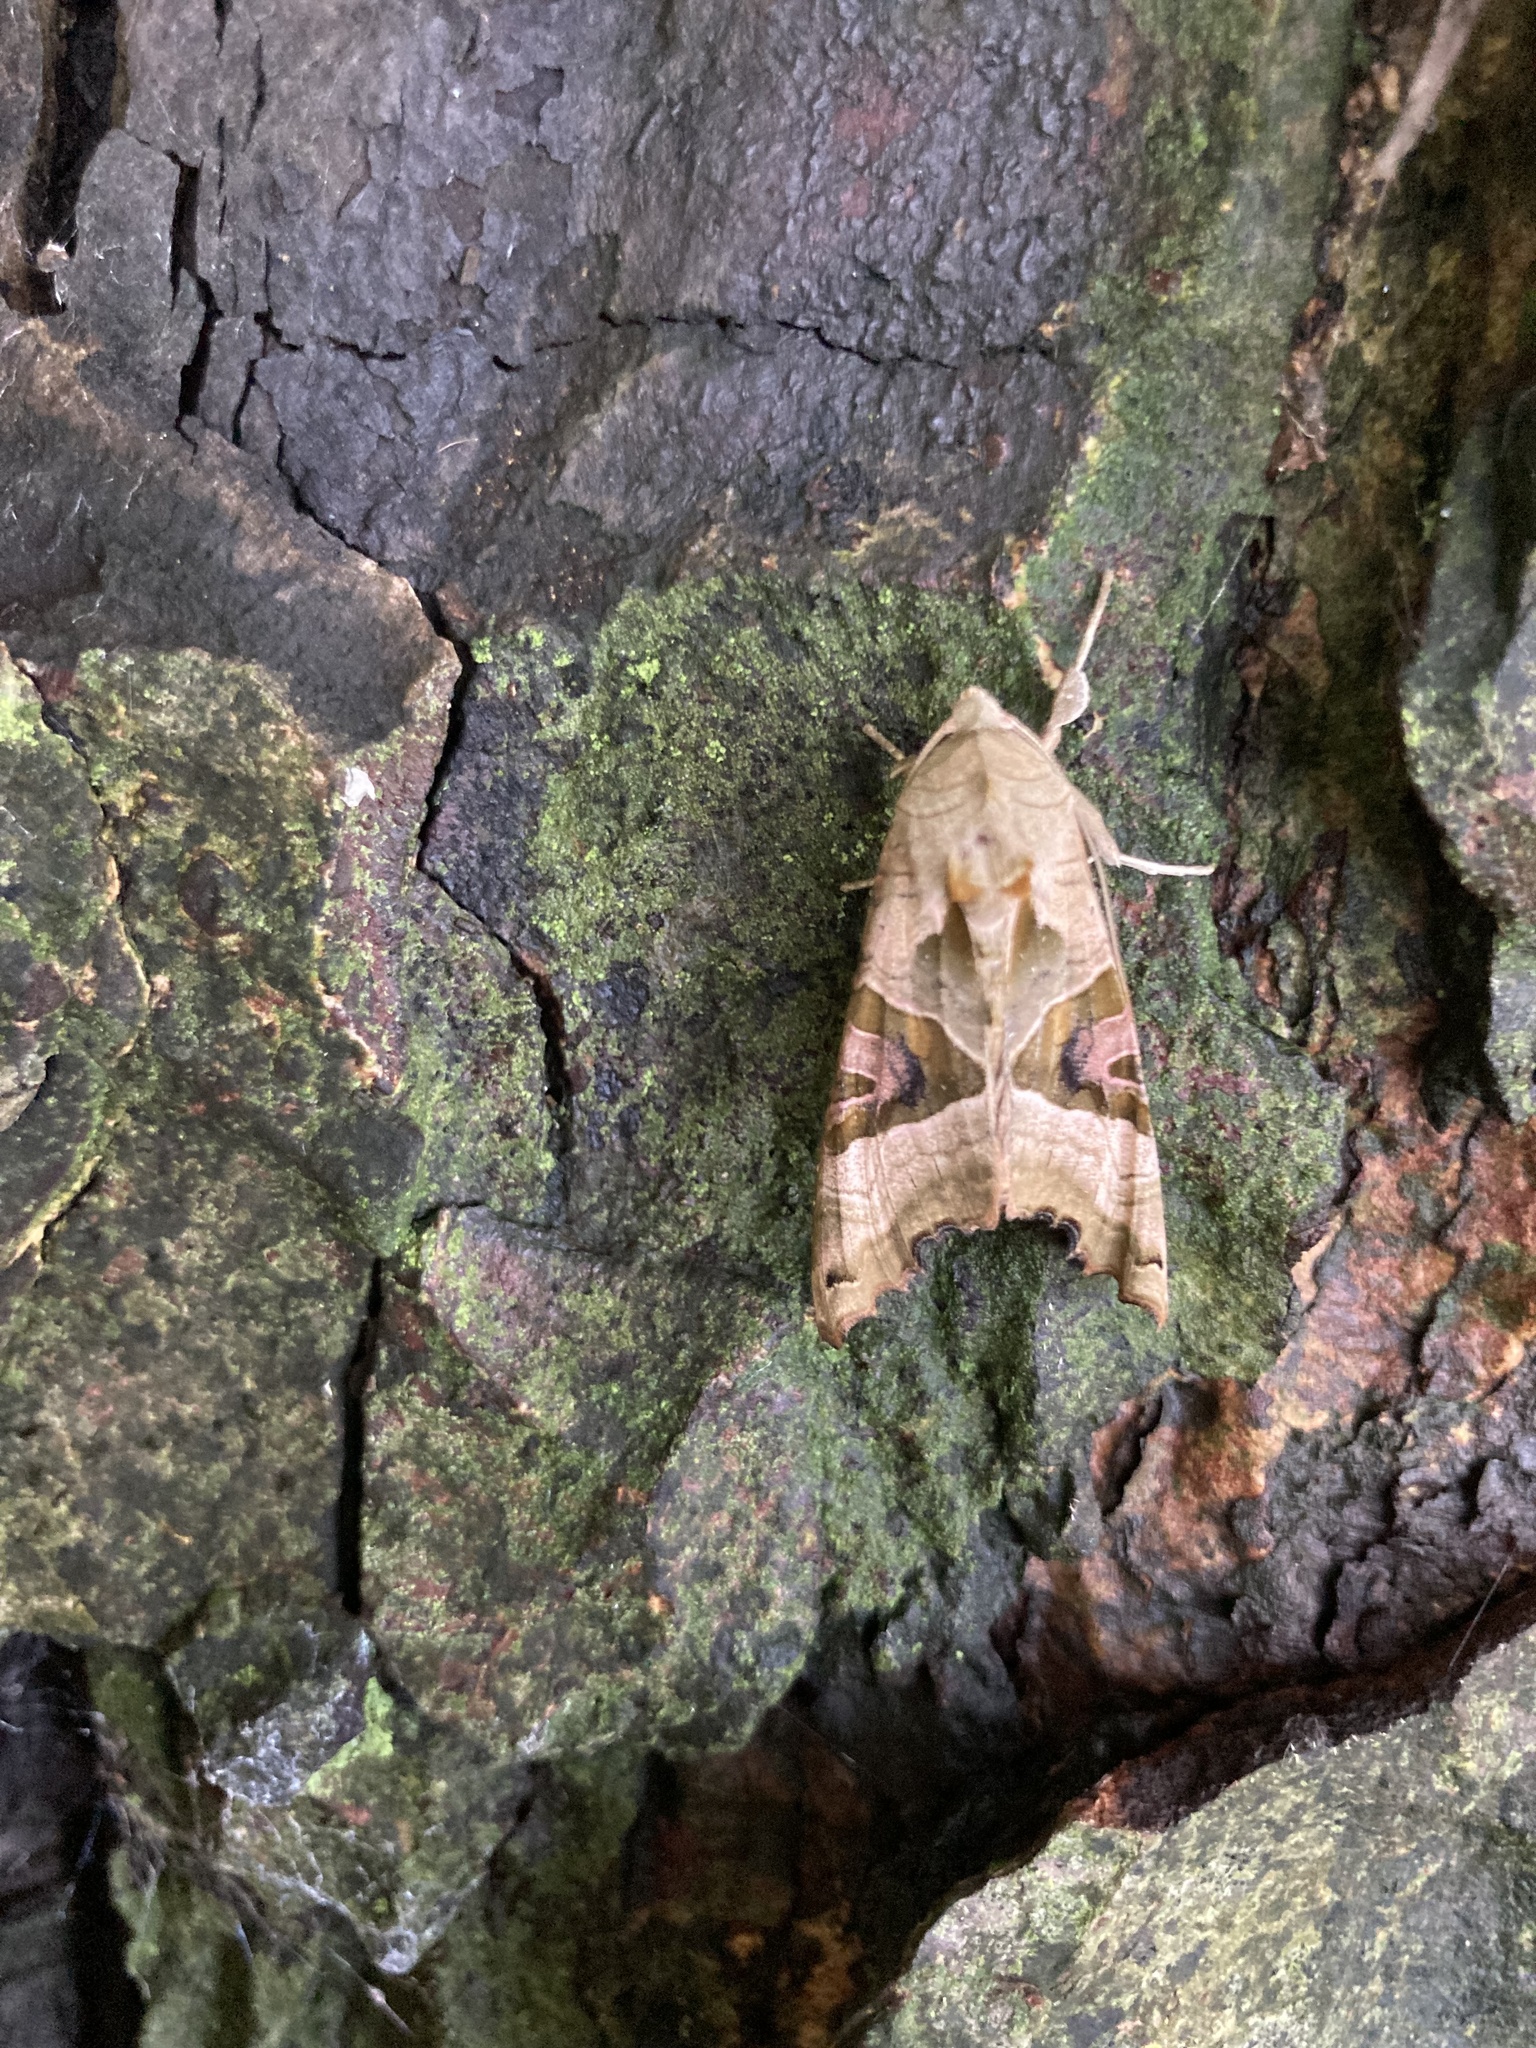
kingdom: Animalia
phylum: Arthropoda
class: Insecta
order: Lepidoptera
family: Noctuidae
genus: Phlogophora
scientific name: Phlogophora meticulosa
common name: Angle shades
